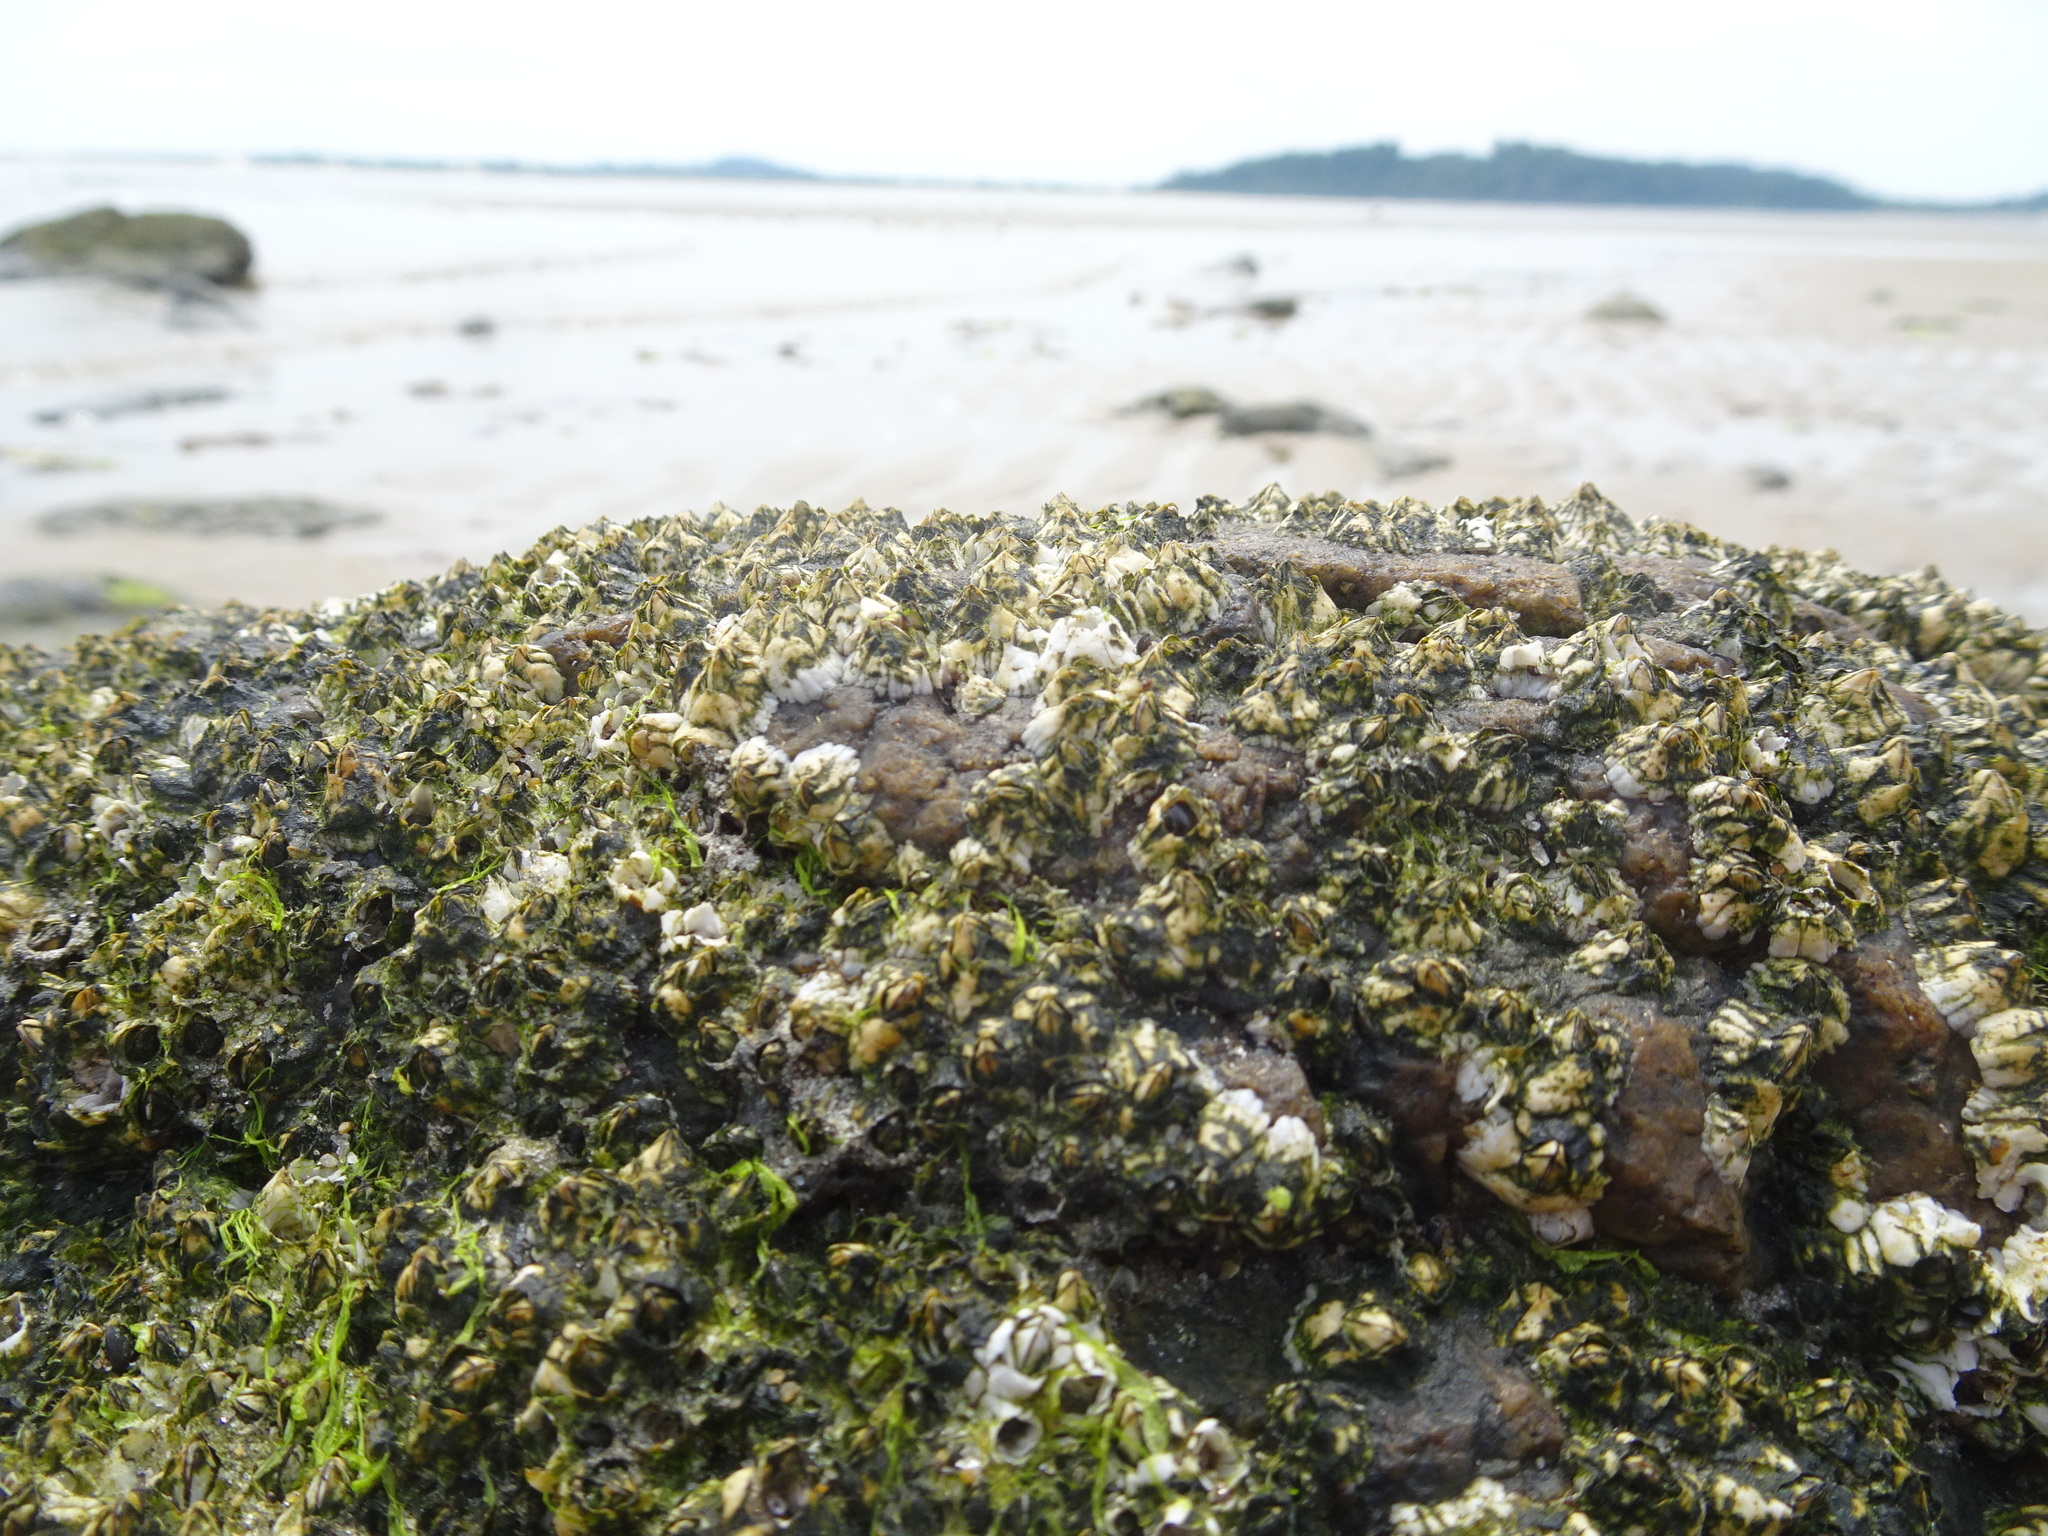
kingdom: Animalia
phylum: Arthropoda
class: Maxillopoda
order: Sessilia
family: Archaeobalanidae
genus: Semibalanus
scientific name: Semibalanus balanoides
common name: Acorn barnacle
